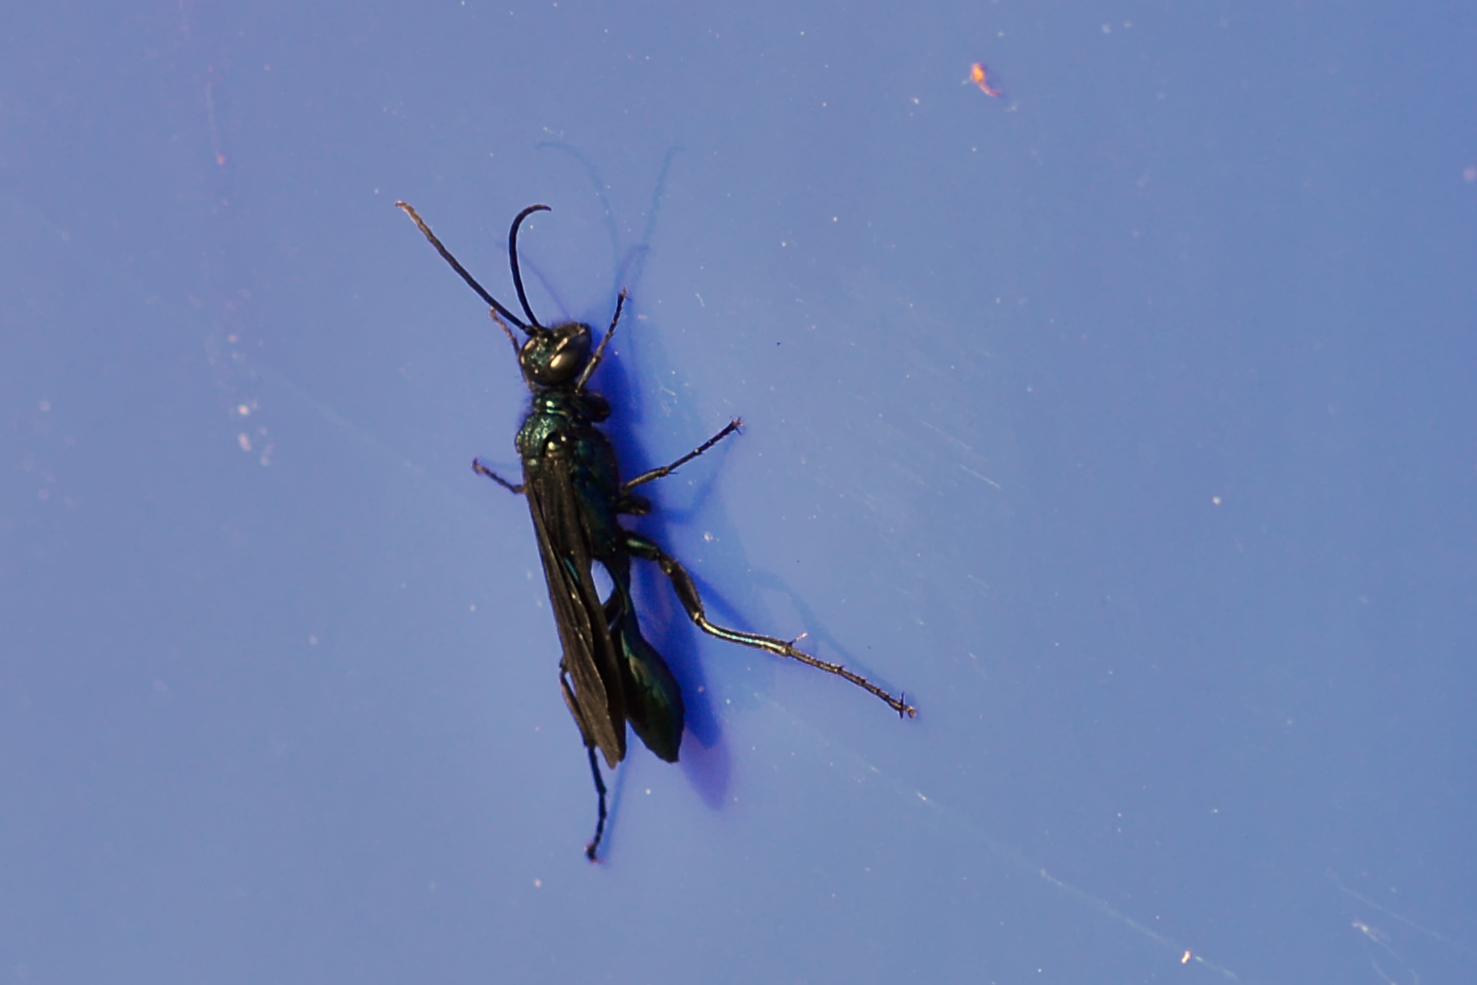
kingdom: Animalia
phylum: Arthropoda
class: Insecta
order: Hymenoptera
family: Sphecidae
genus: Chalybion
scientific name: Chalybion californicum
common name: Mud dauber
